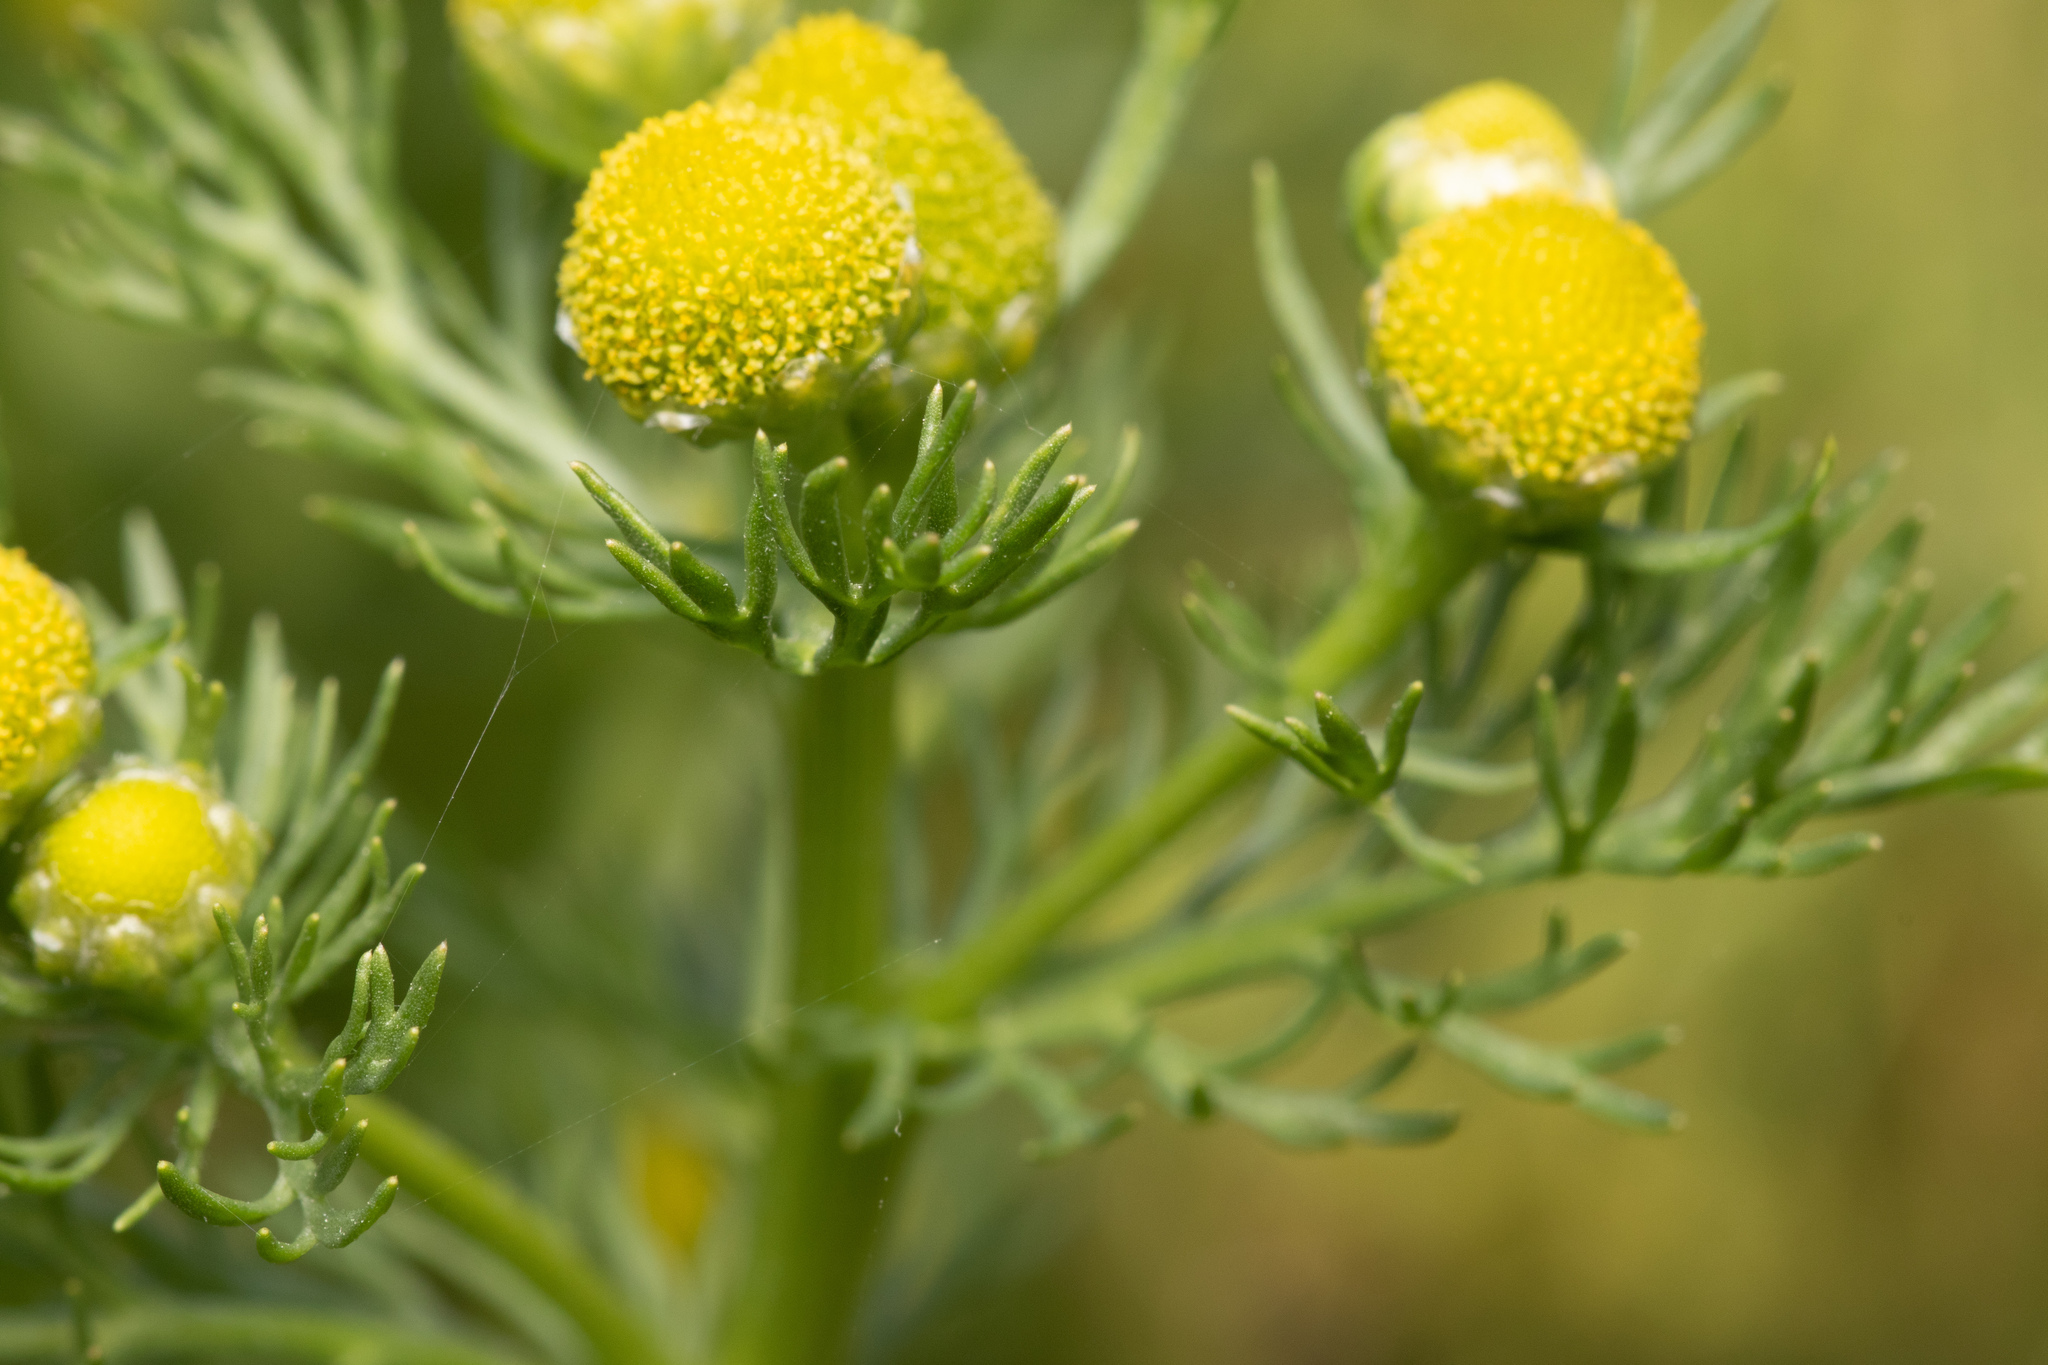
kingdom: Plantae
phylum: Tracheophyta
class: Magnoliopsida
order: Asterales
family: Asteraceae
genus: Matricaria
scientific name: Matricaria discoidea
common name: Disc mayweed
